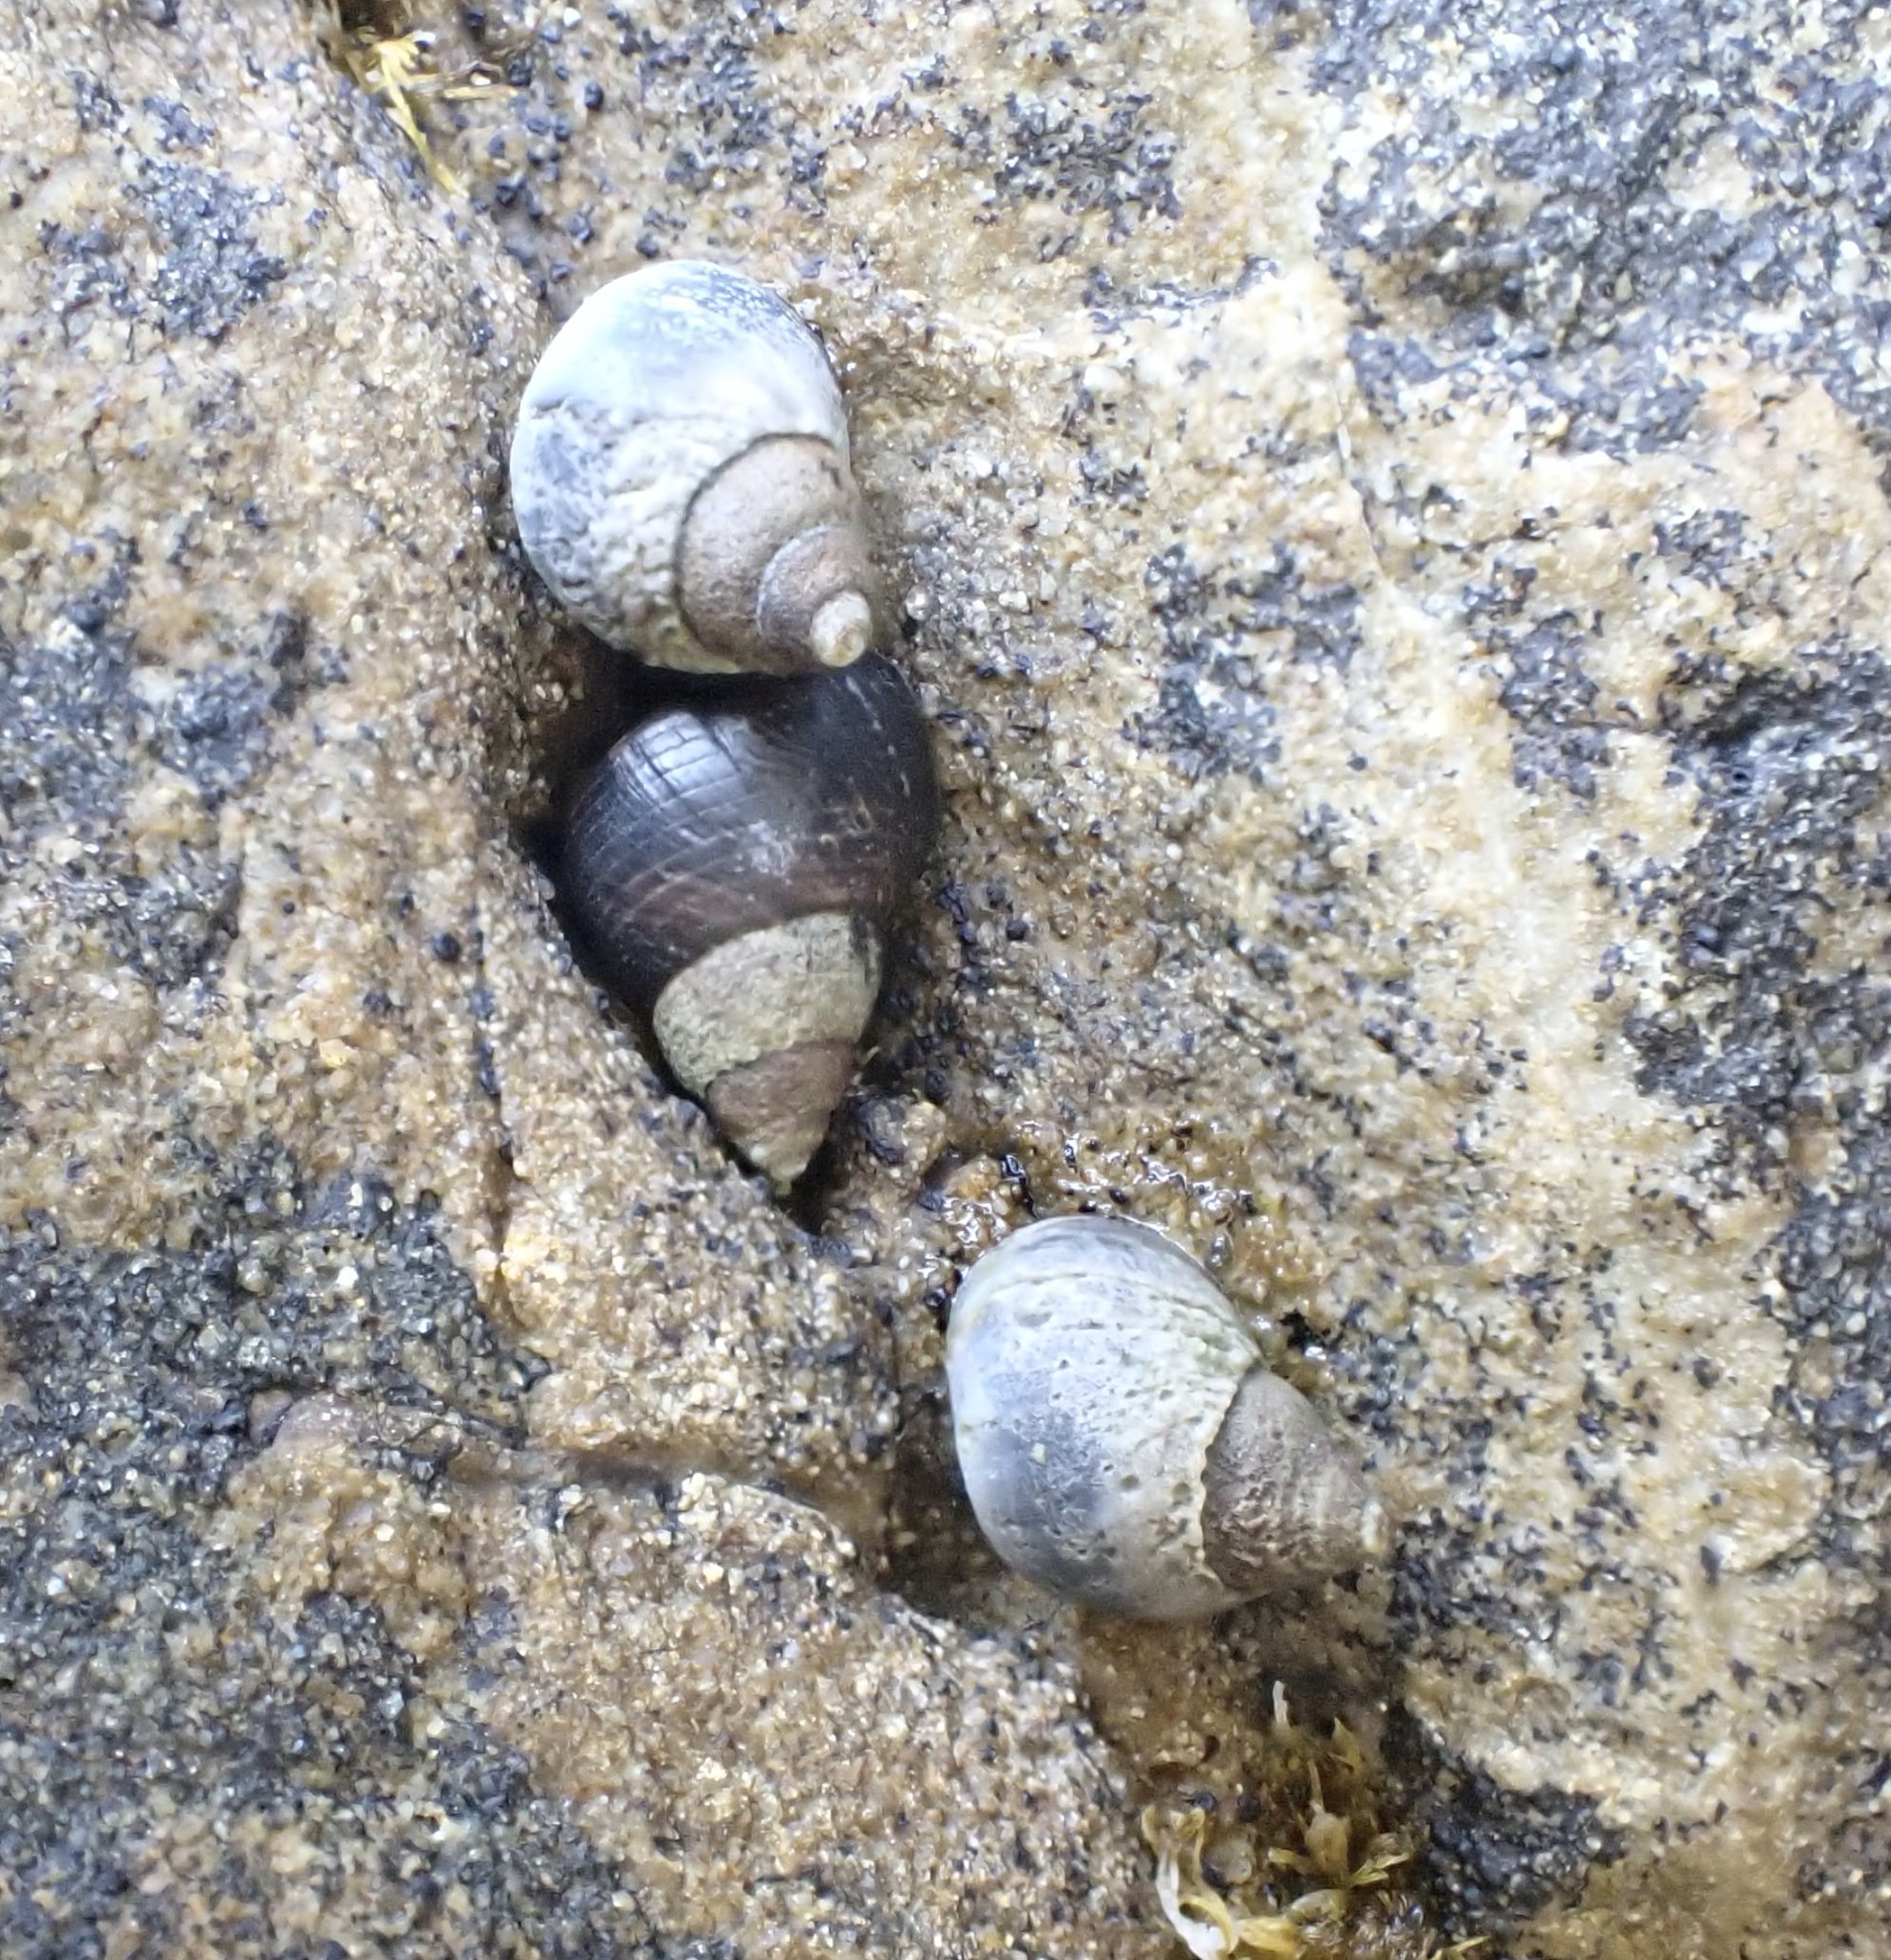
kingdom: Animalia
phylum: Mollusca
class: Gastropoda
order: Littorinimorpha
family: Littorinidae
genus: Austrolittorina
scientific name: Austrolittorina antipodum
